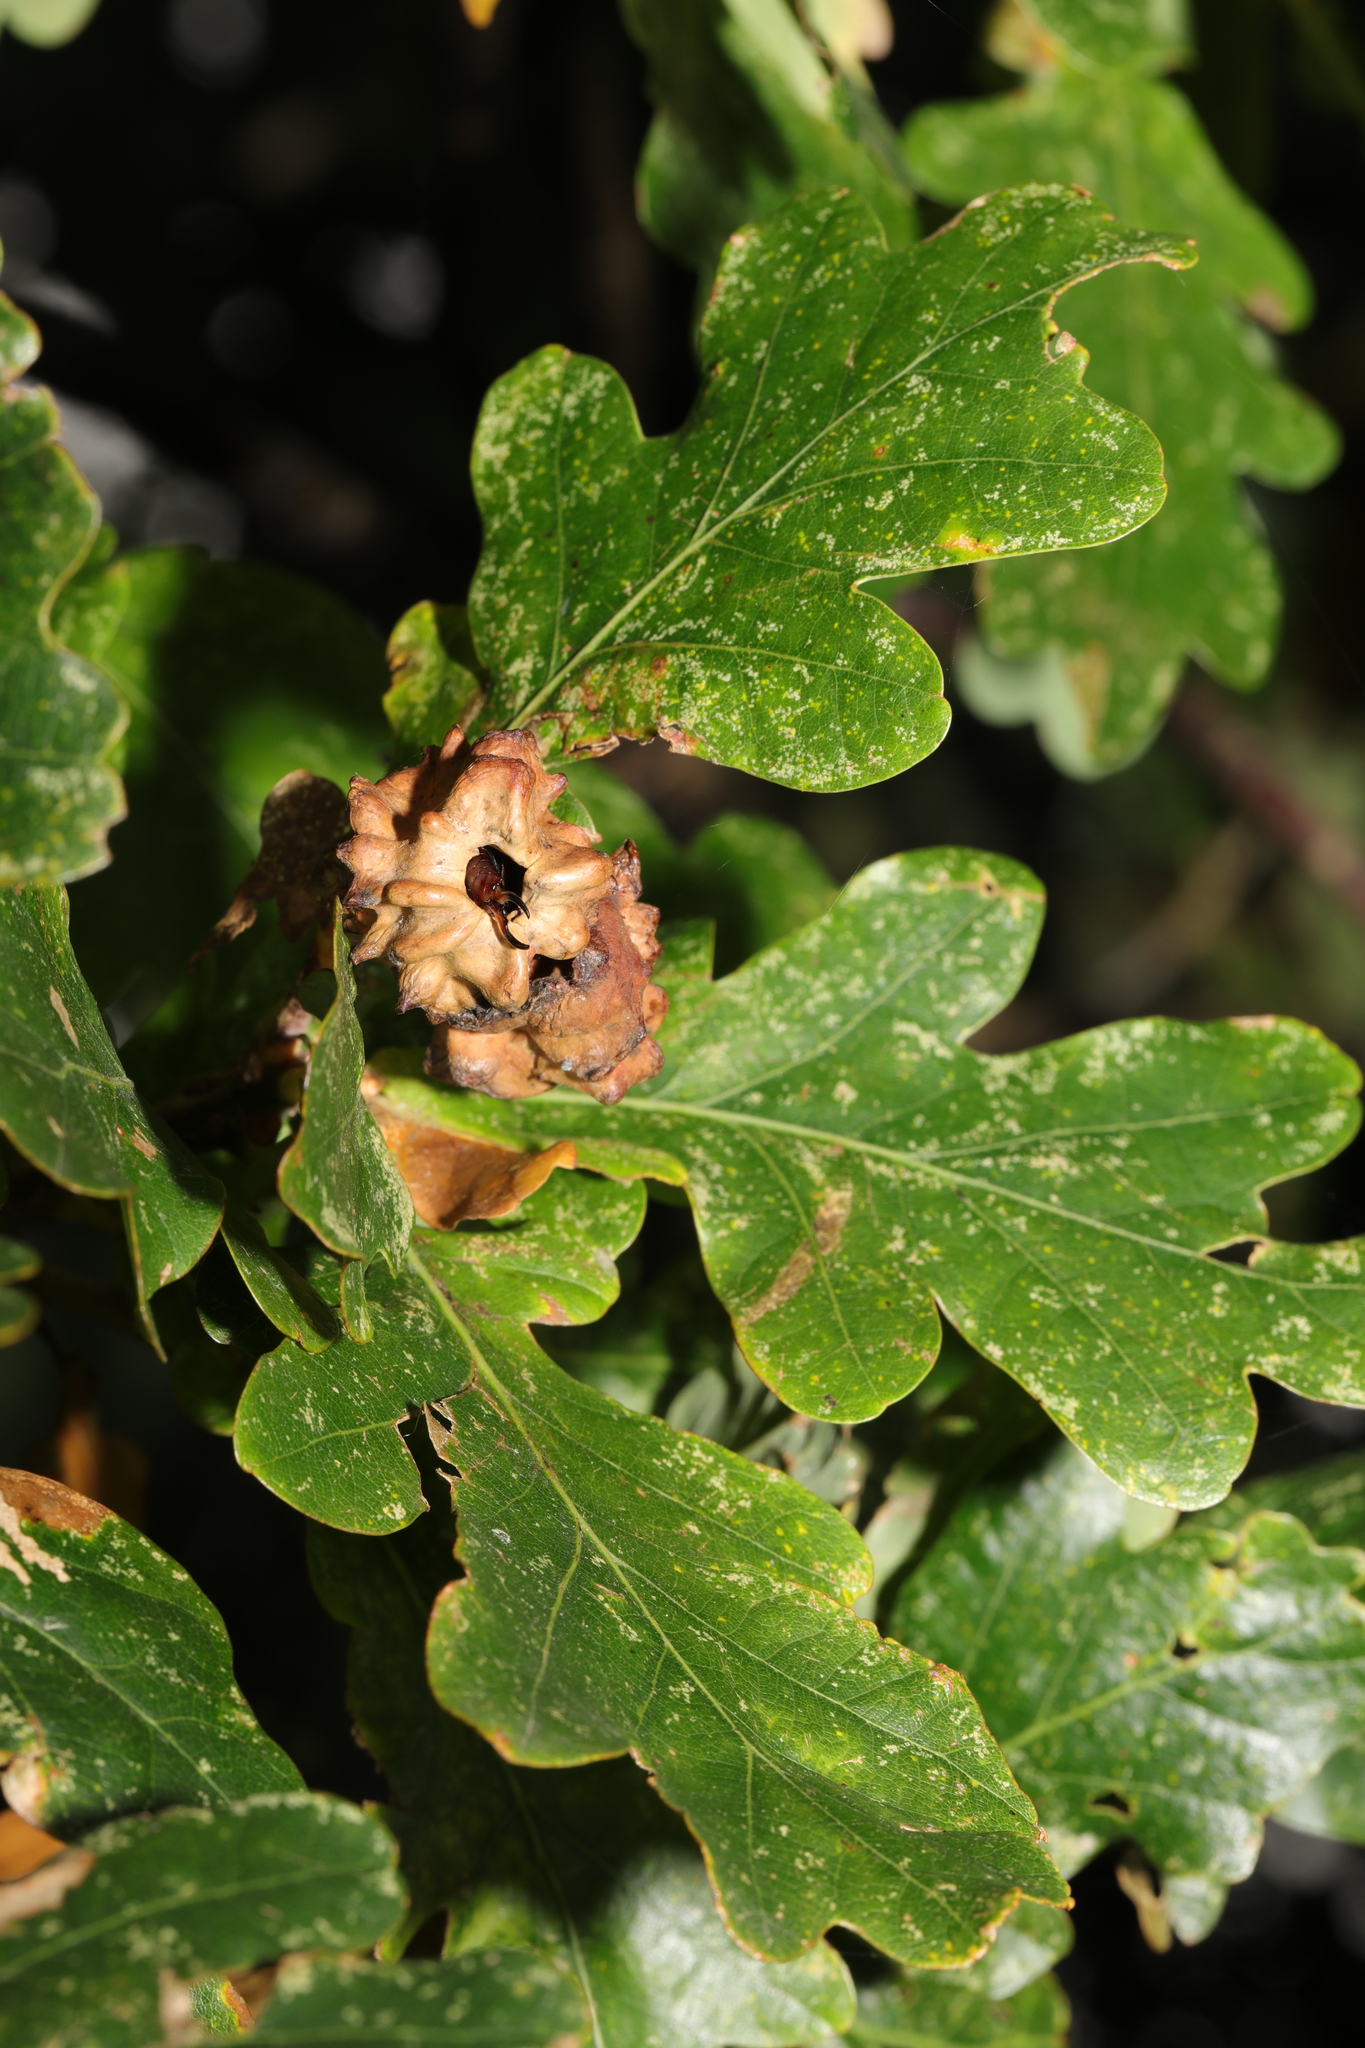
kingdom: Animalia
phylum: Arthropoda
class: Insecta
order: Hymenoptera
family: Cynipidae
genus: Andricus
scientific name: Andricus quercuscalicis
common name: Knopper gall
